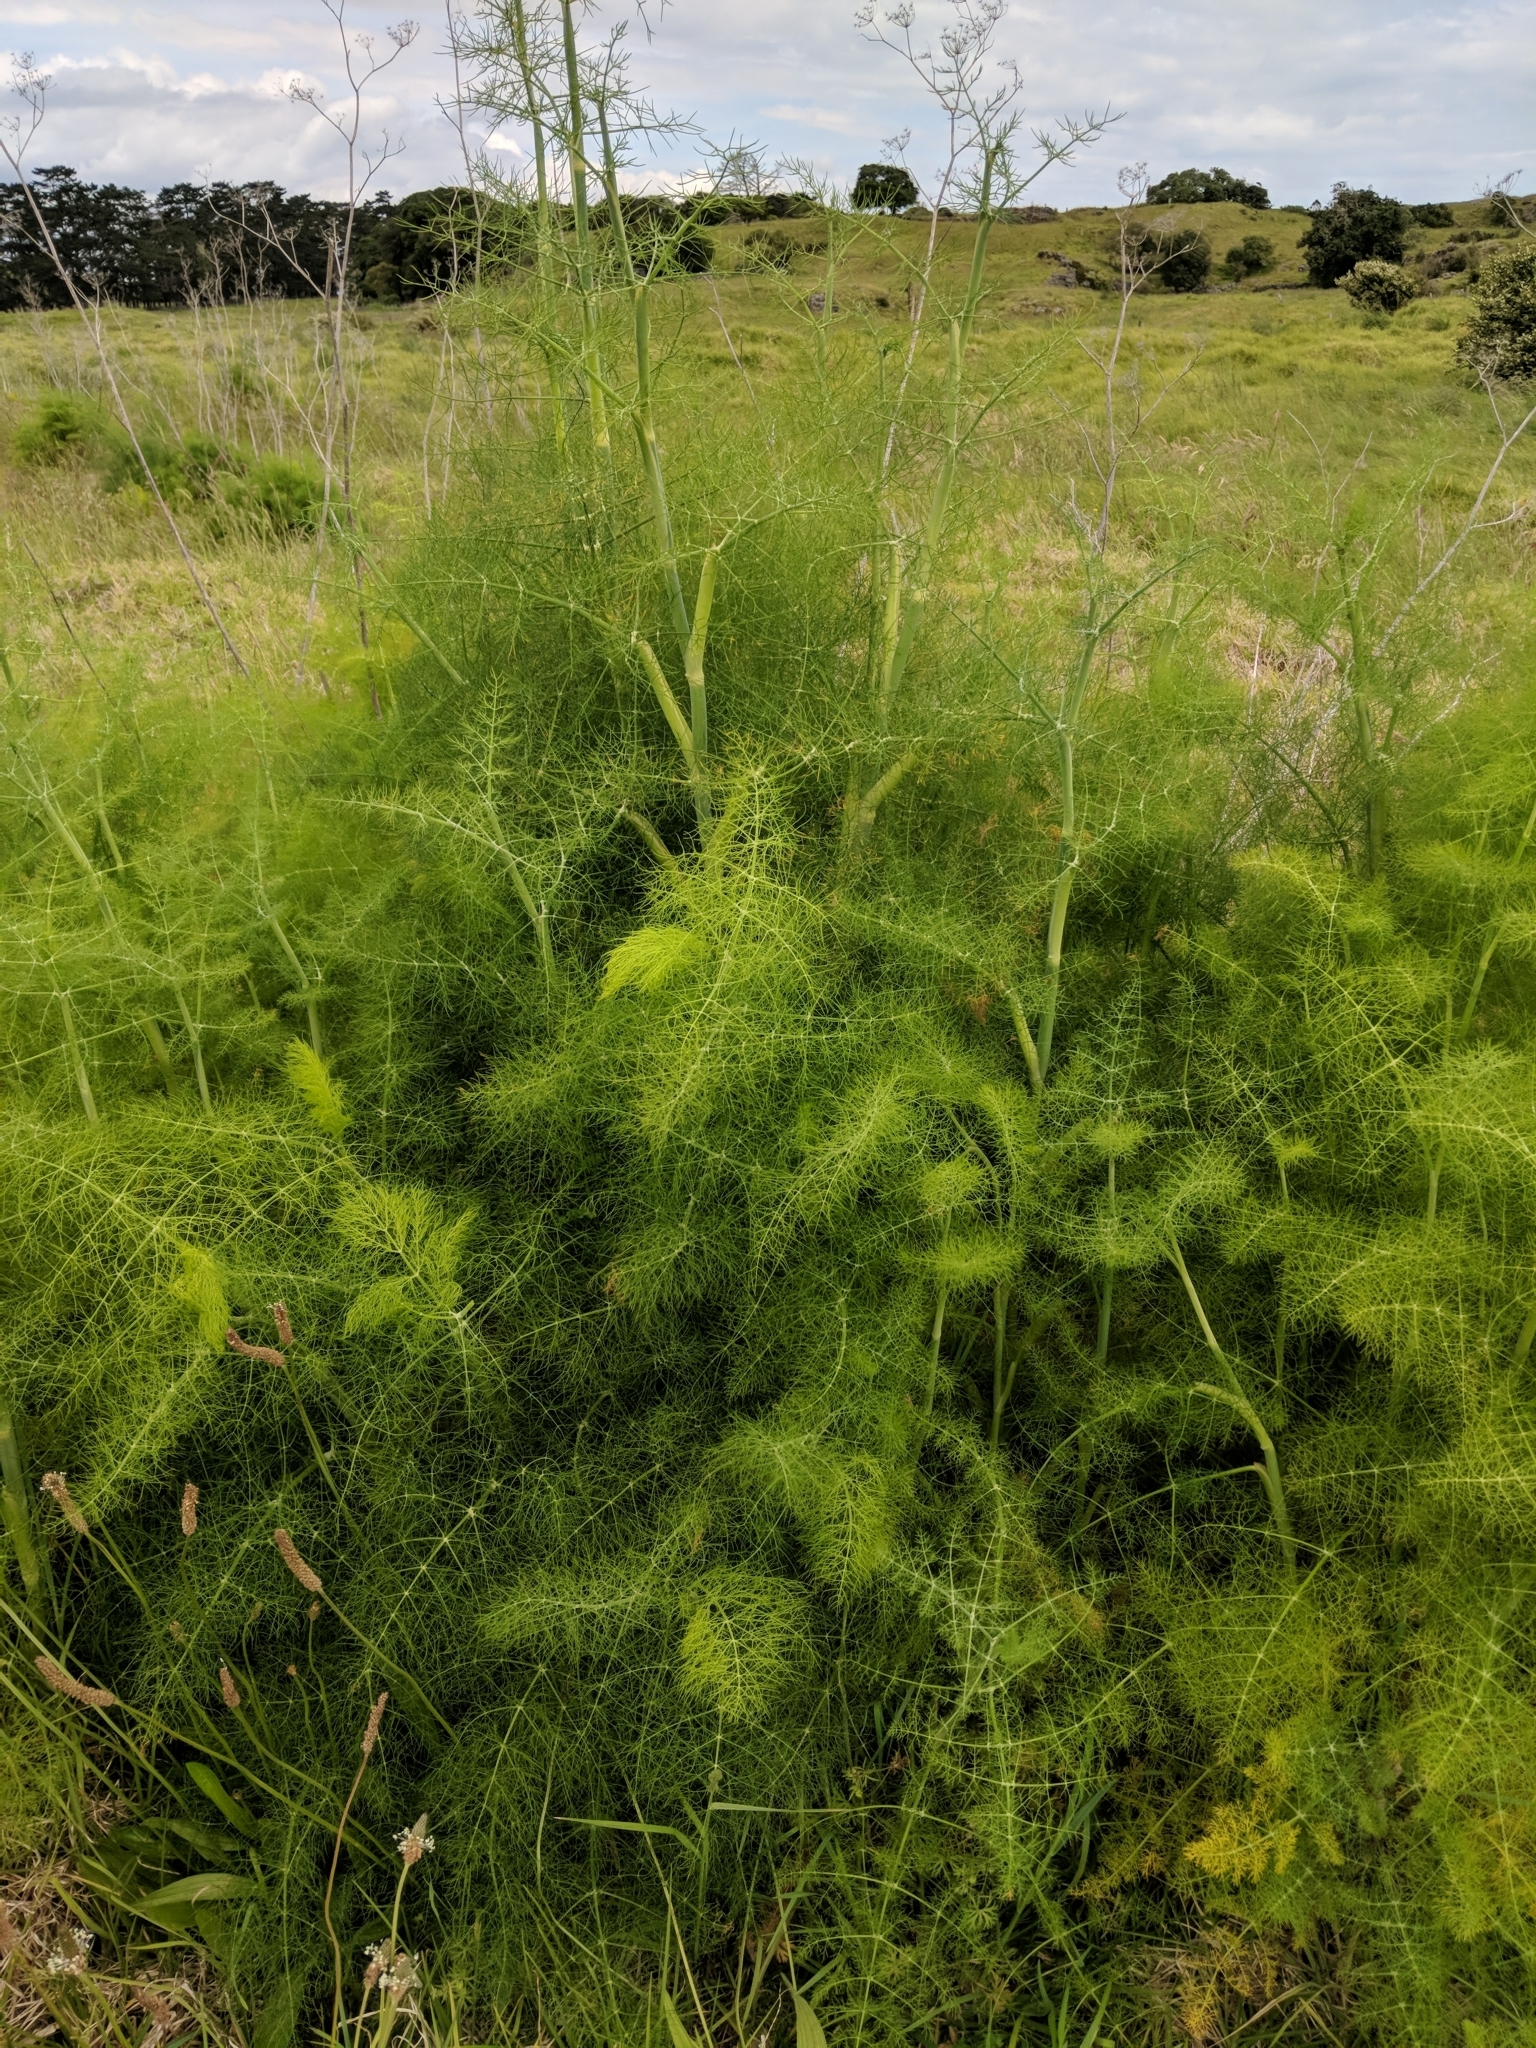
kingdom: Plantae
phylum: Tracheophyta
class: Magnoliopsida
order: Apiales
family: Apiaceae
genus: Foeniculum
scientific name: Foeniculum vulgare
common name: Fennel
